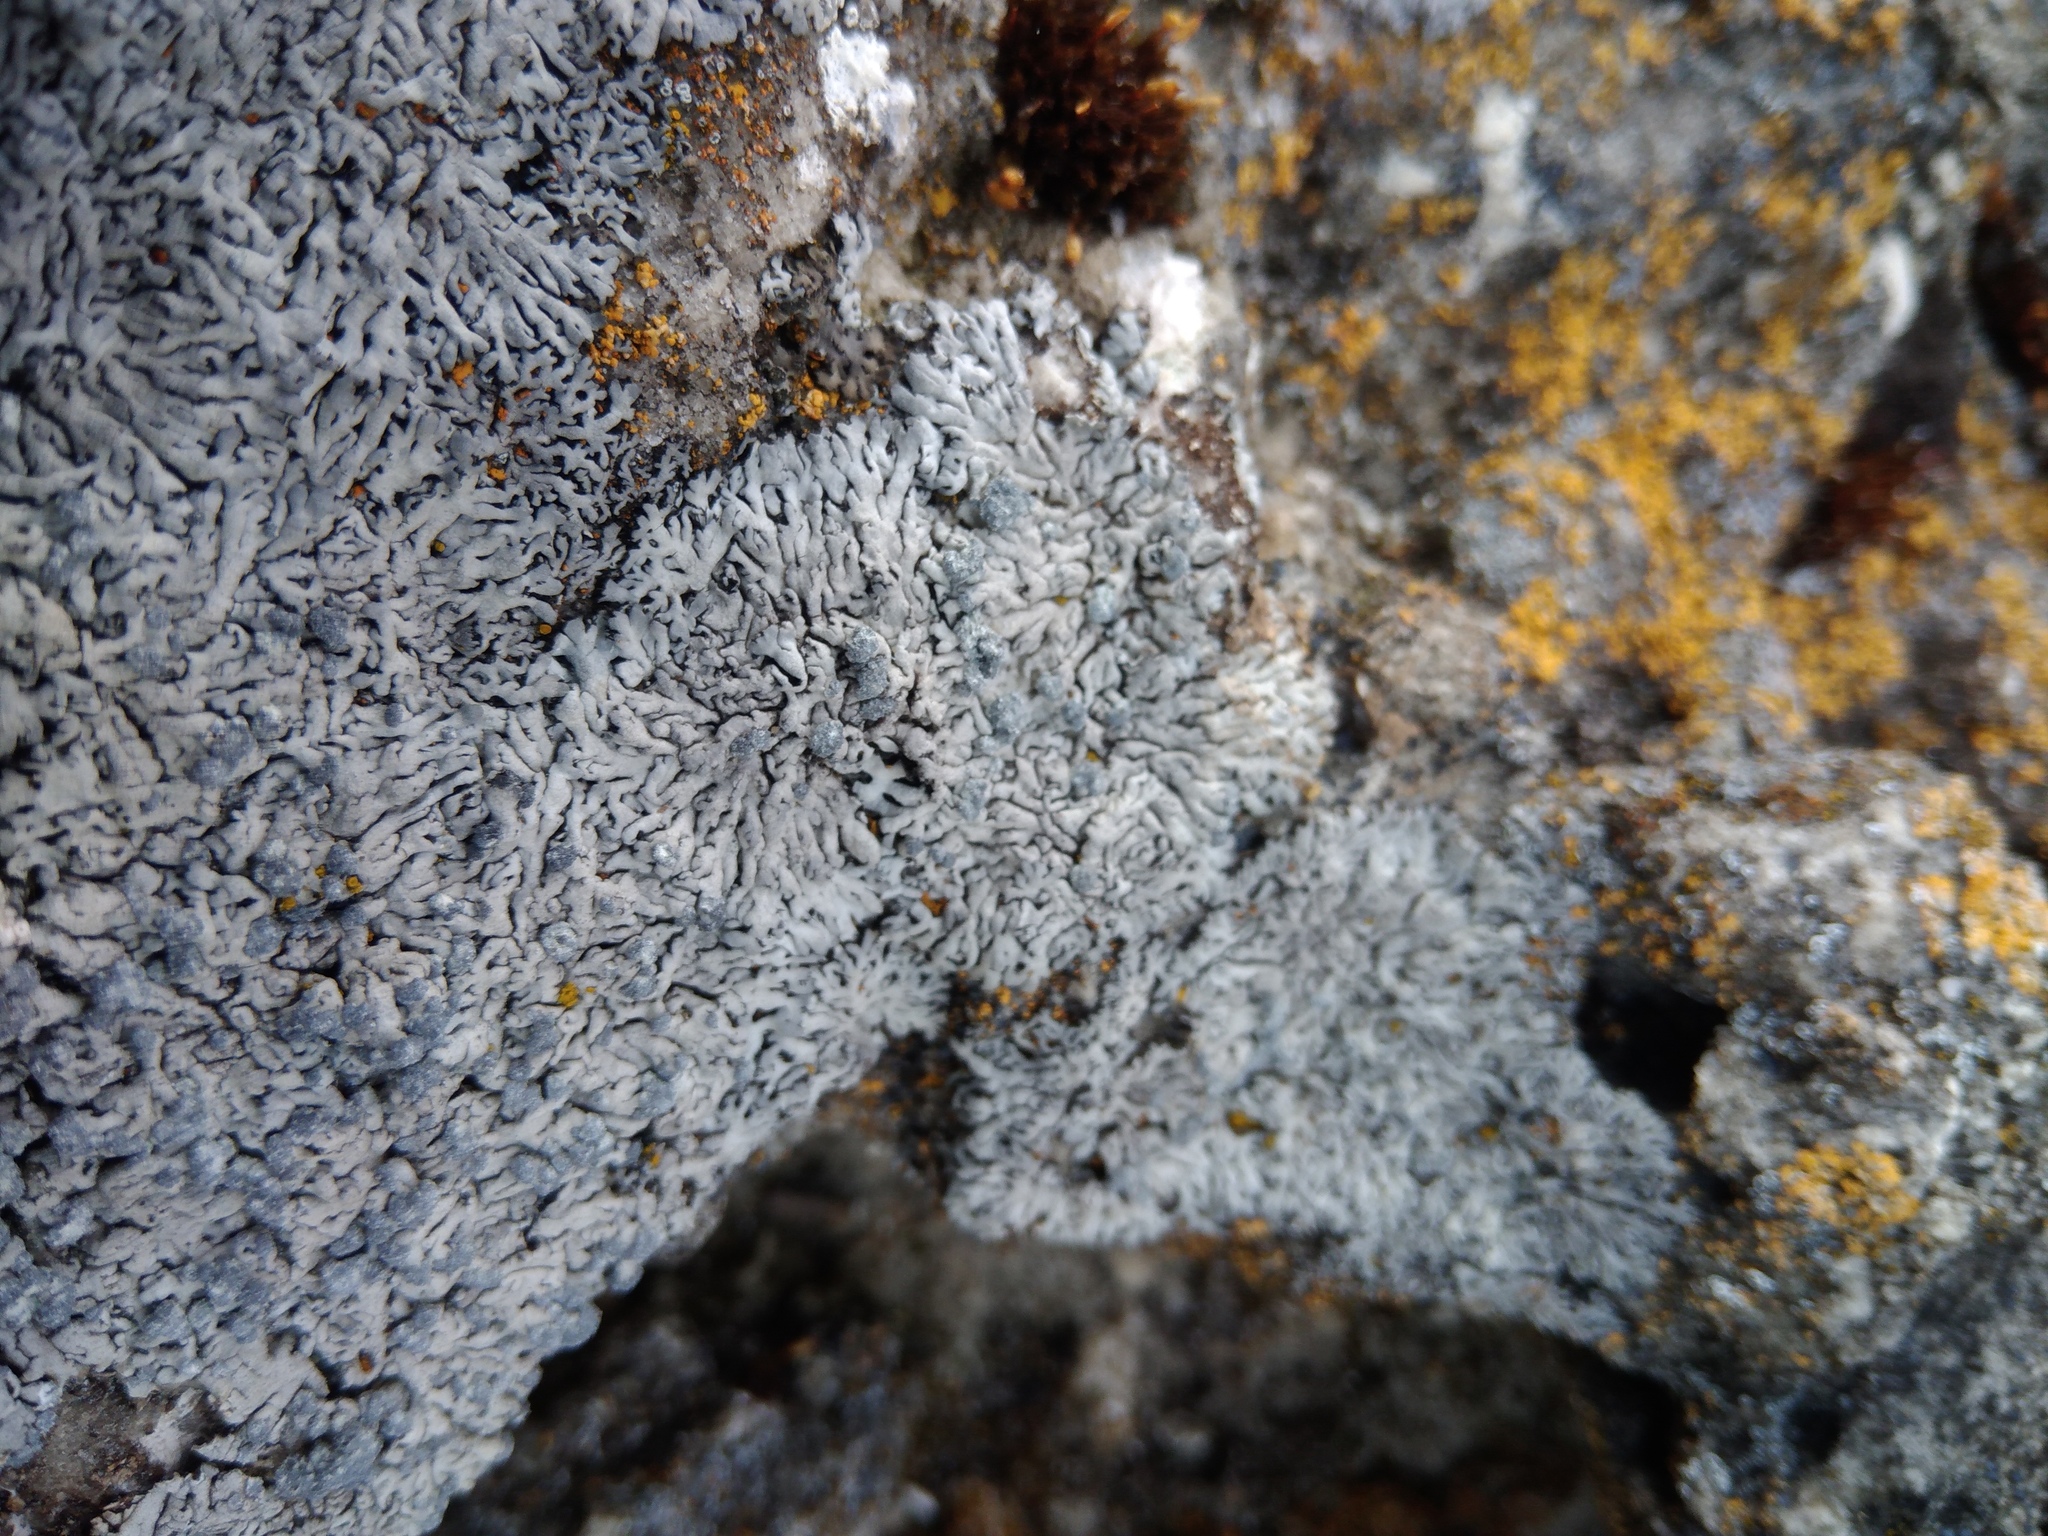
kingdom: Fungi
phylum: Ascomycota
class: Lecanoromycetes
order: Caliciales
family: Physciaceae
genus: Physcia
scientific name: Physcia caesia
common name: Blue-gray rosette lichen
